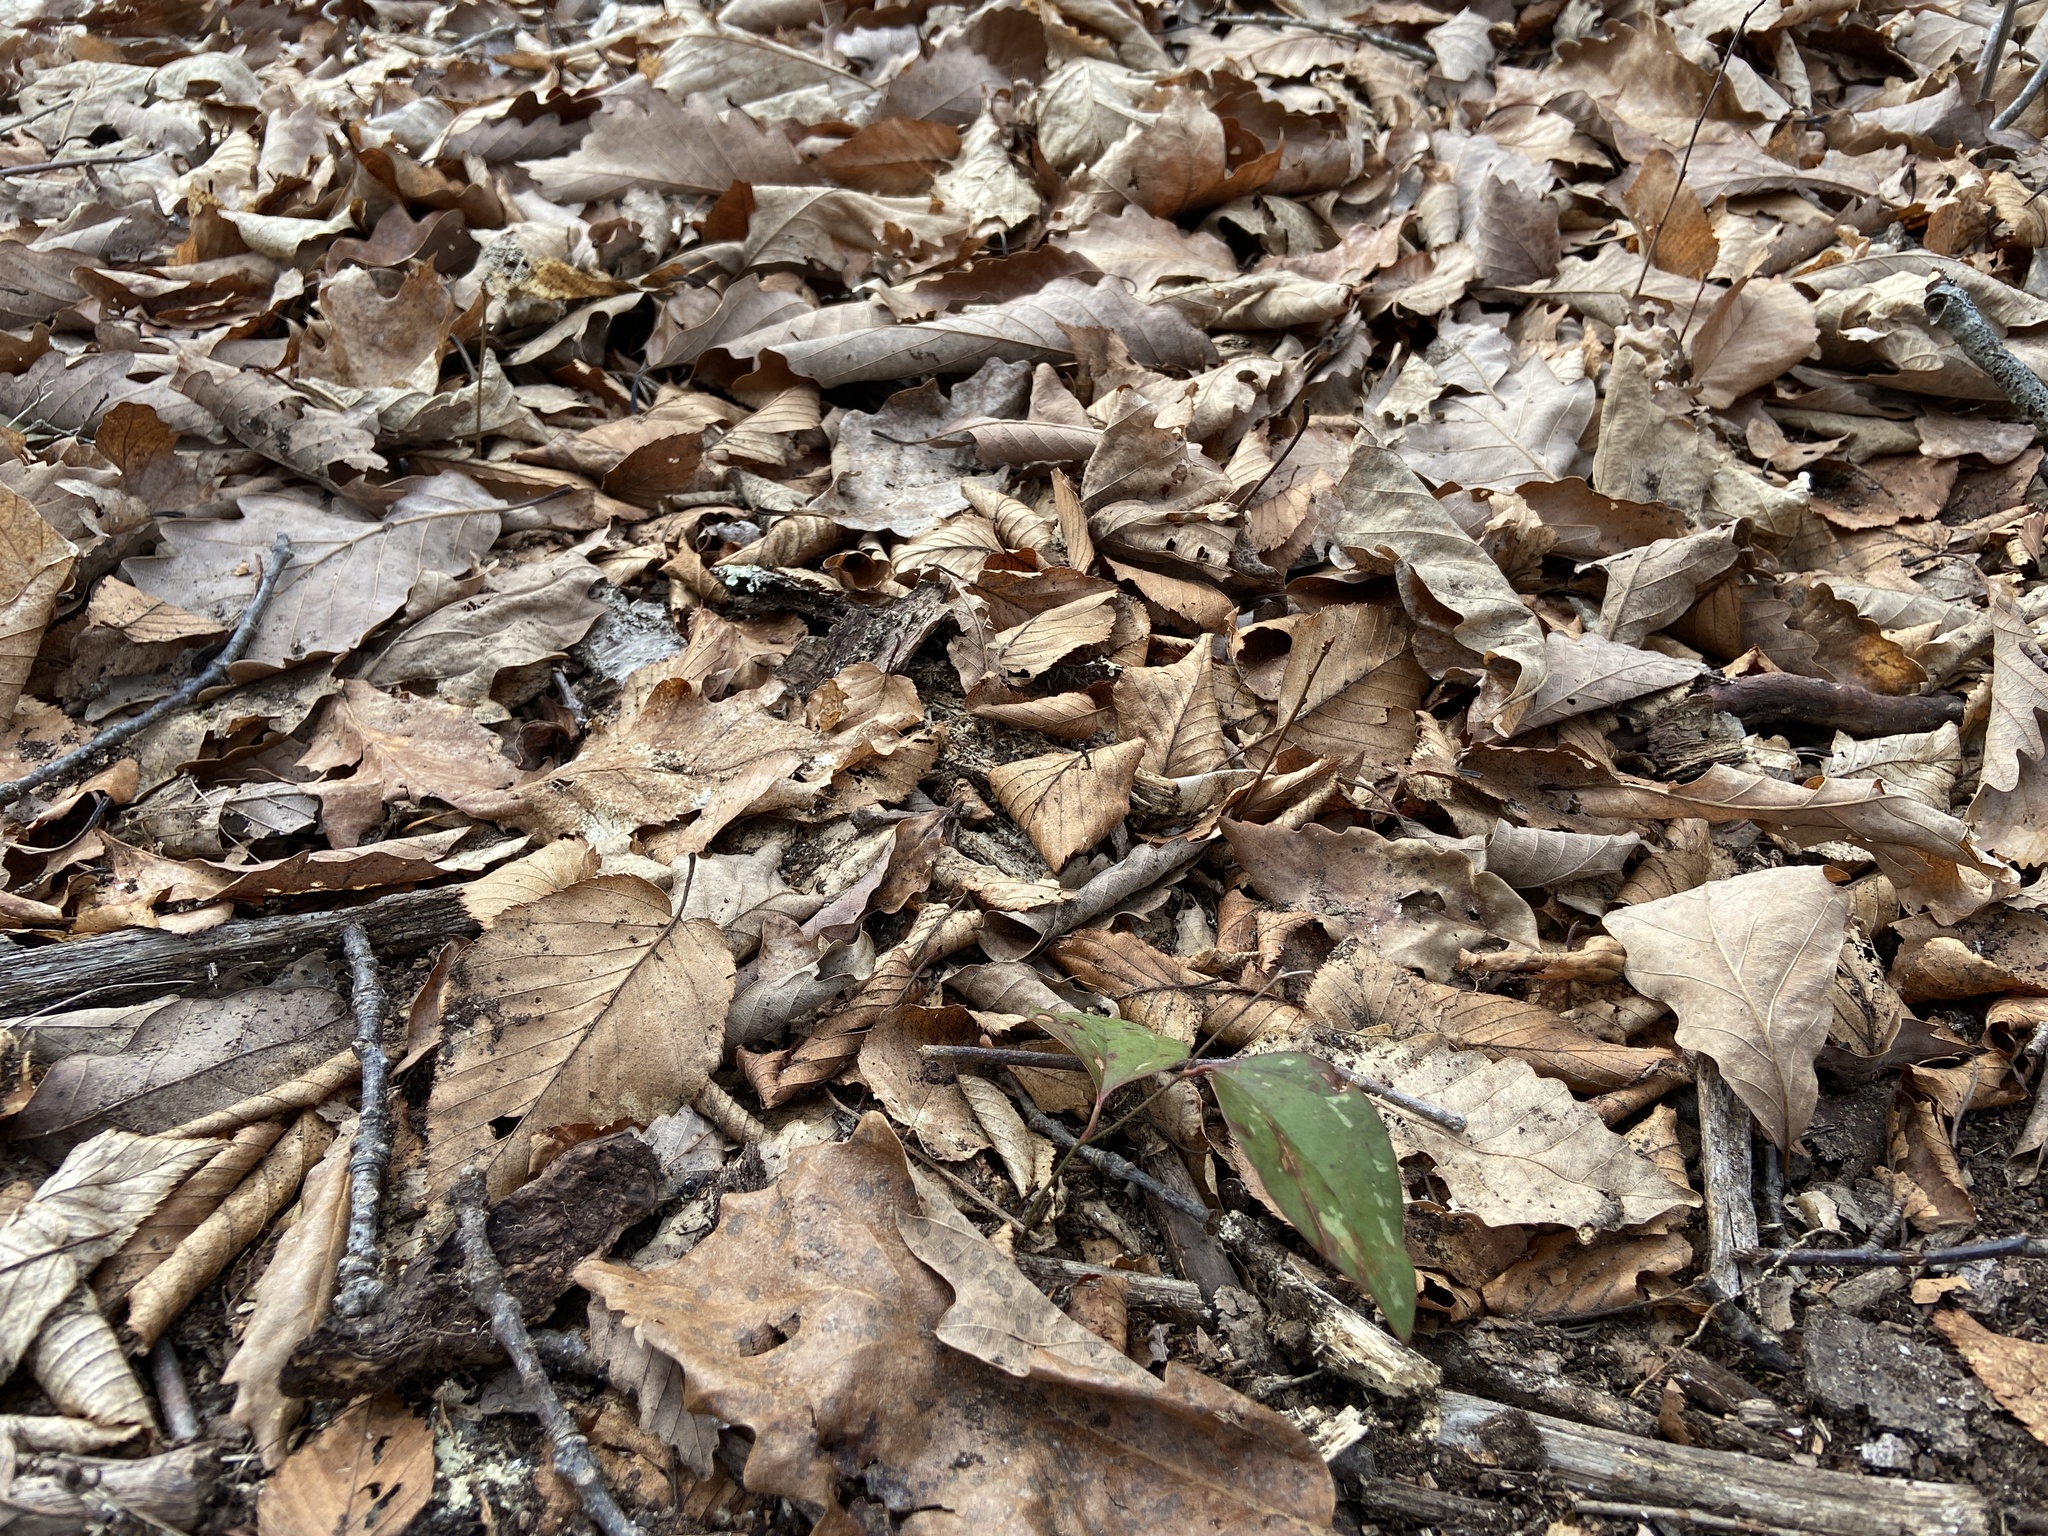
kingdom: Plantae
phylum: Tracheophyta
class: Liliopsida
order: Liliales
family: Smilacaceae
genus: Smilax
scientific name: Smilax glauca
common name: Cat greenbrier
